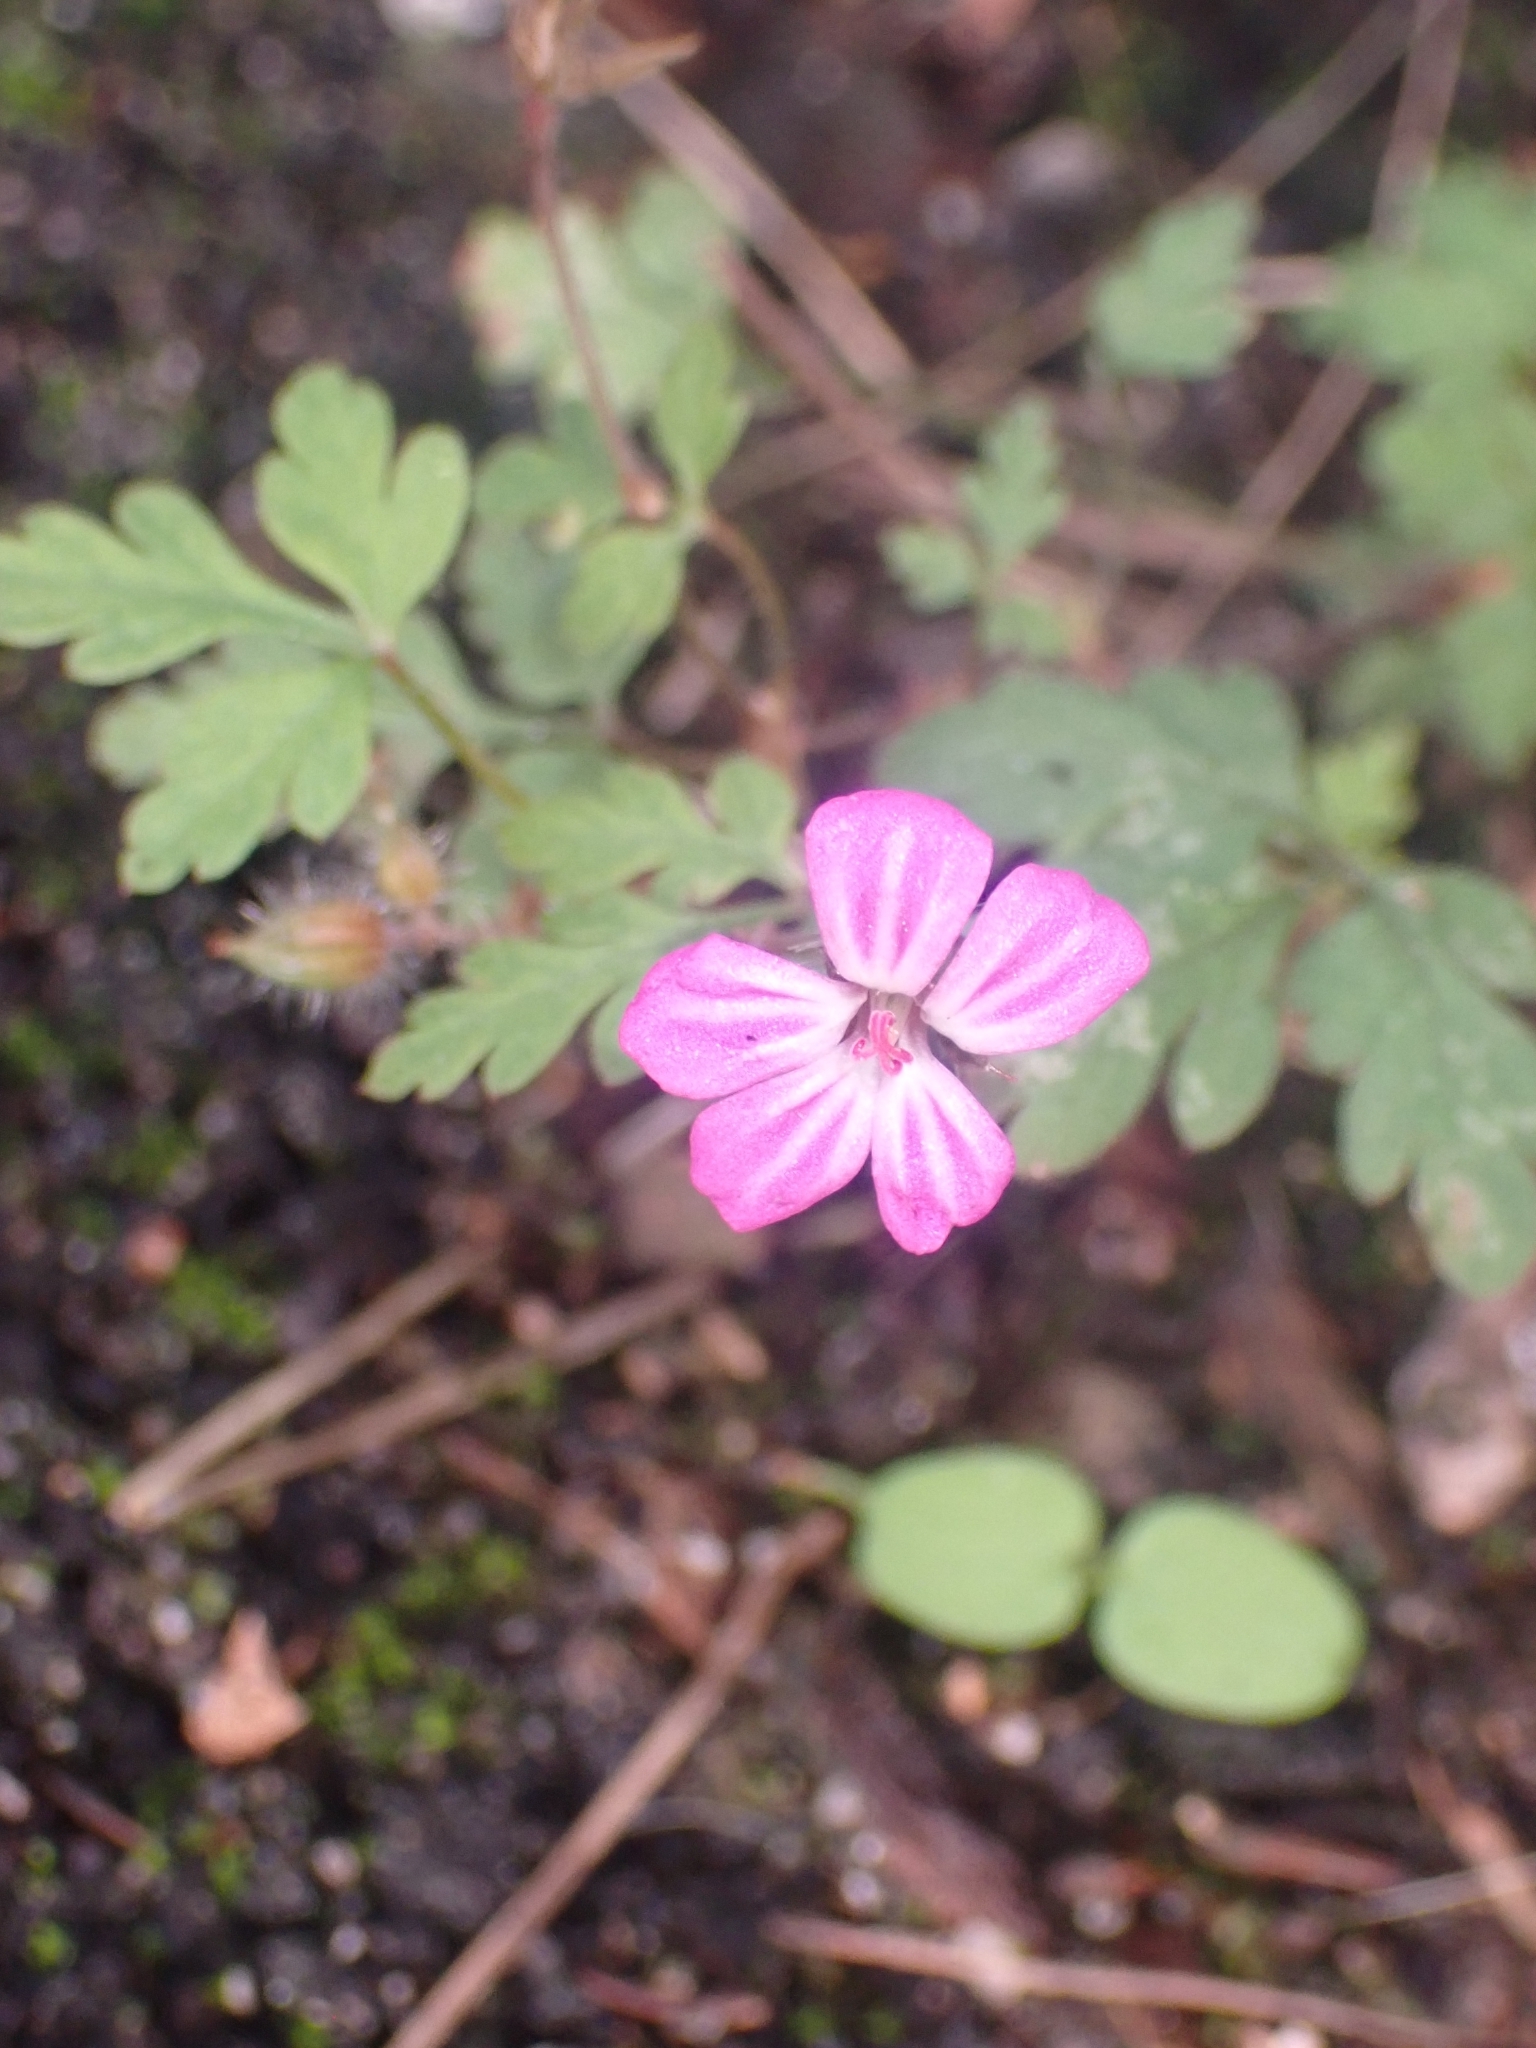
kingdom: Plantae
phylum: Tracheophyta
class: Magnoliopsida
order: Geraniales
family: Geraniaceae
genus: Geranium
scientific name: Geranium robertianum
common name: Herb-robert
